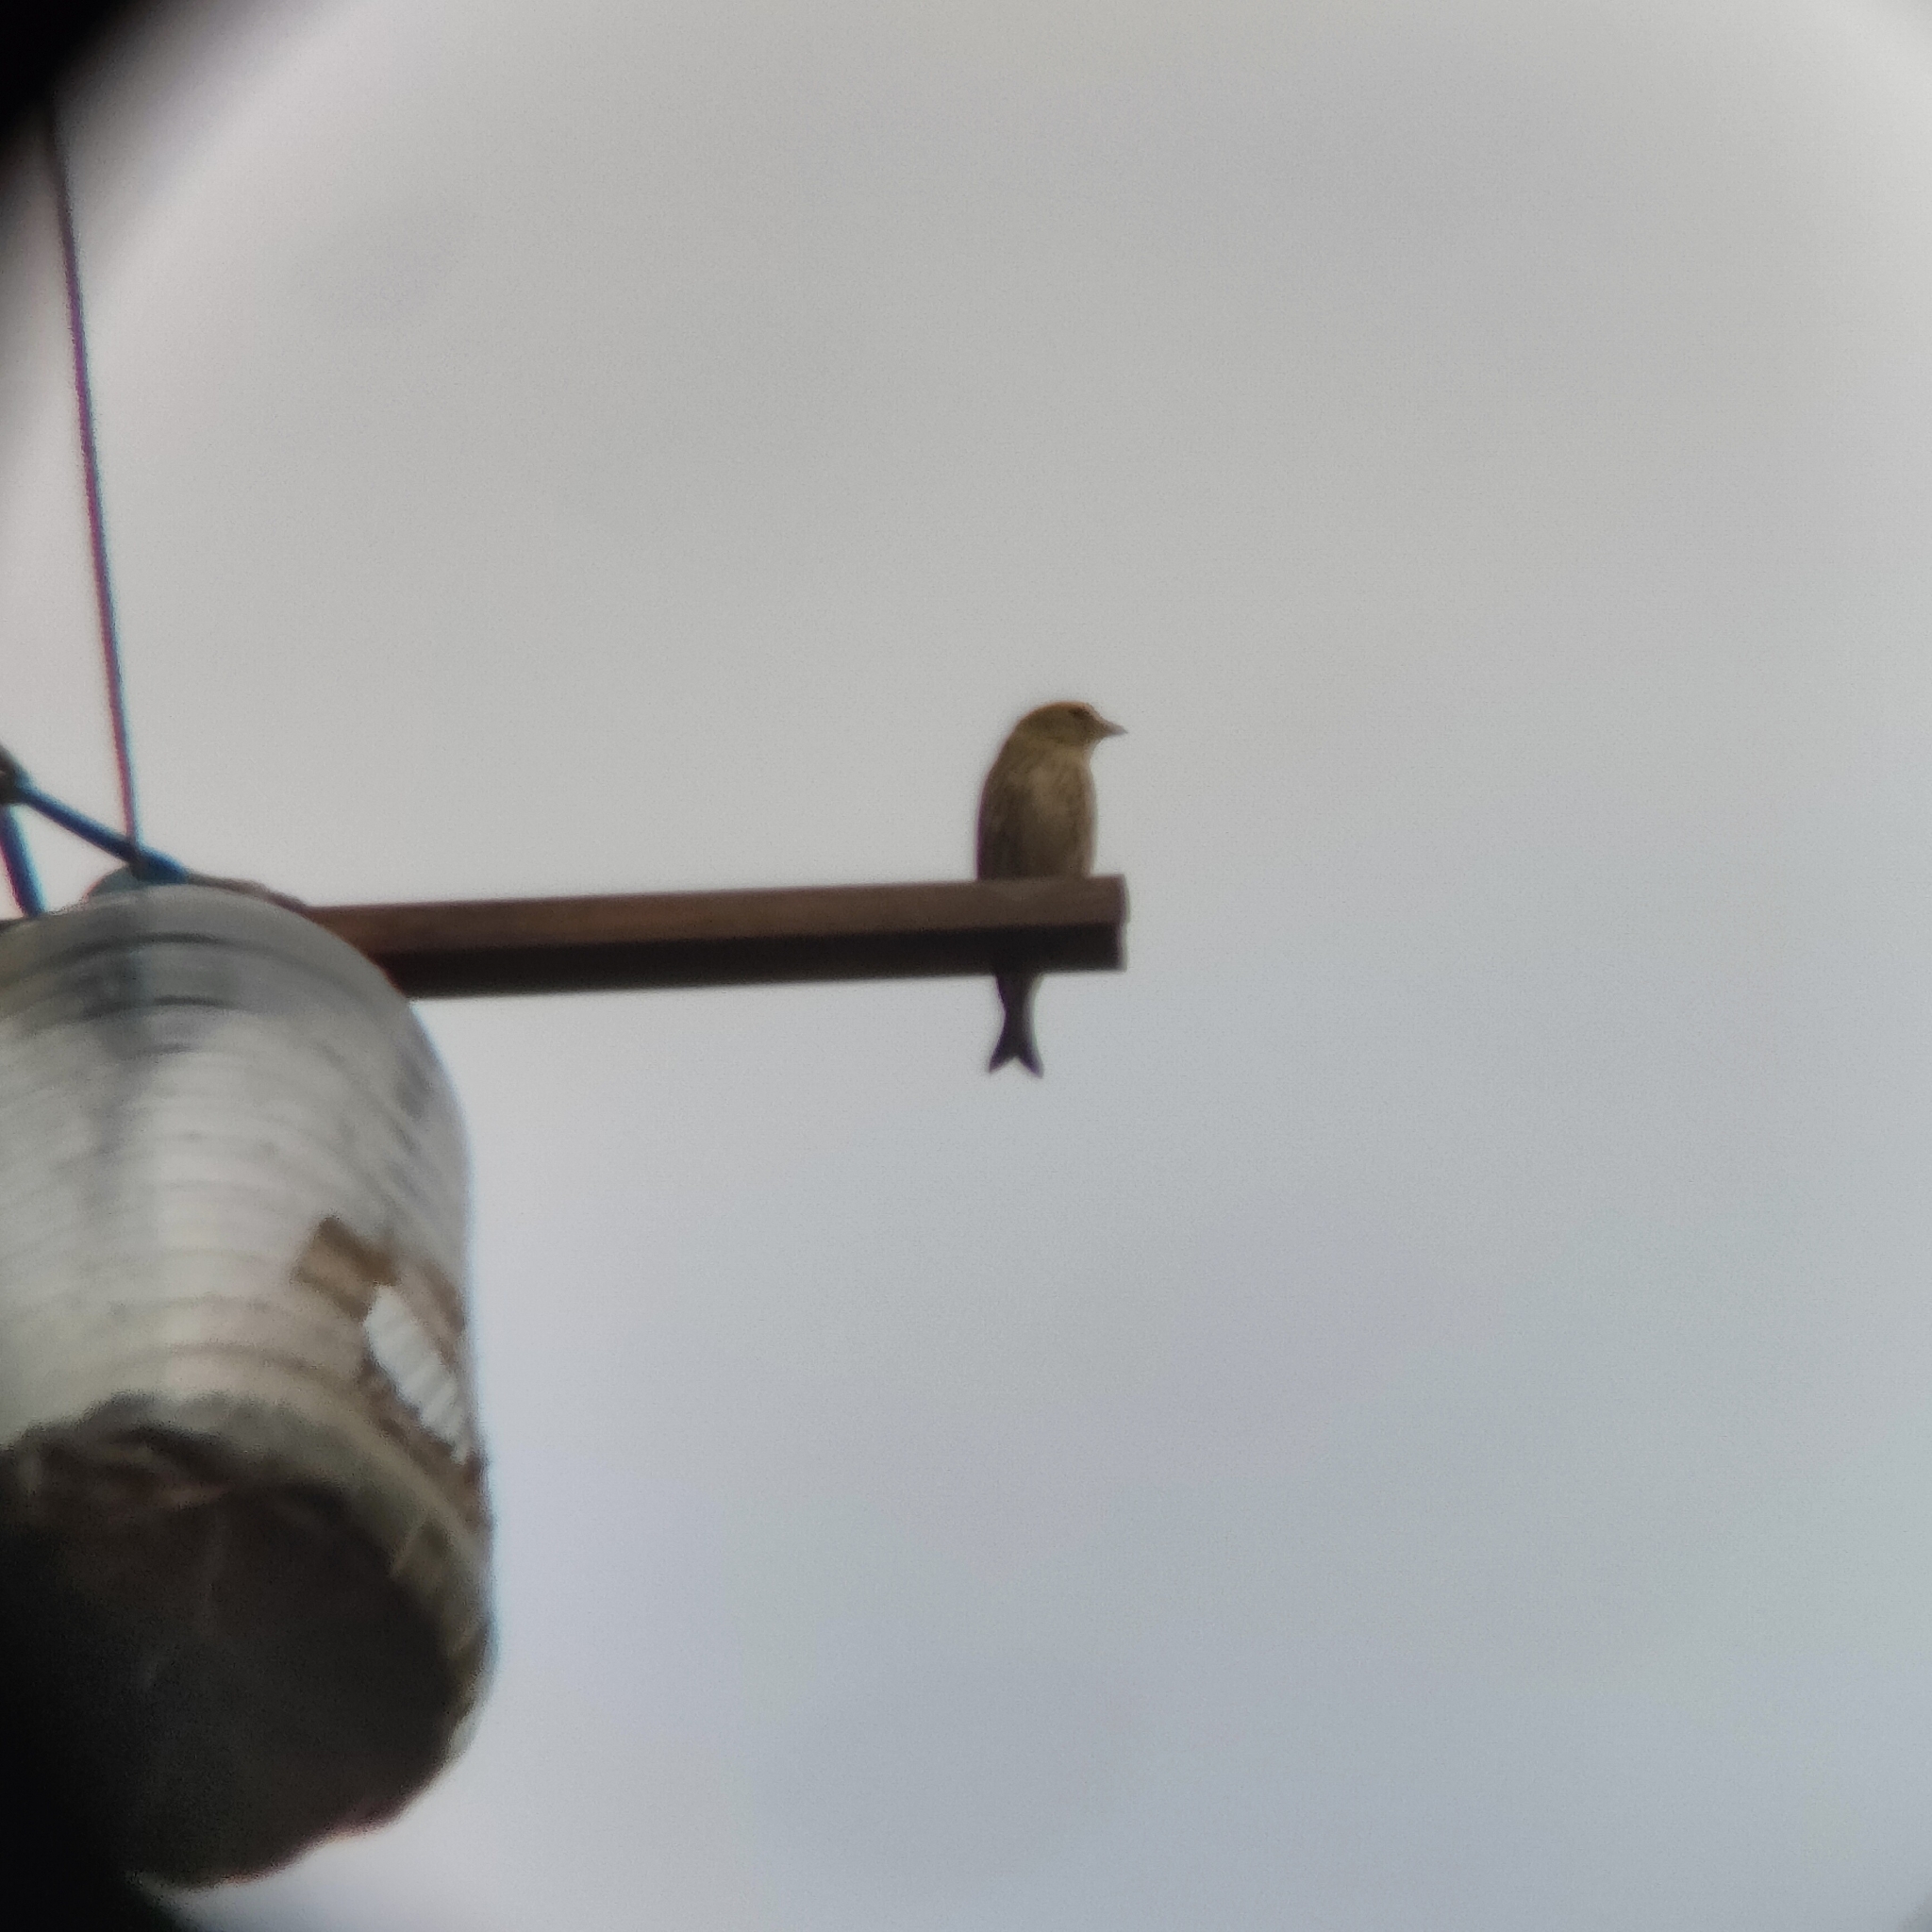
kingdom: Plantae
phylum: Tracheophyta
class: Liliopsida
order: Poales
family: Poaceae
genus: Chloris
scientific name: Chloris chloris
